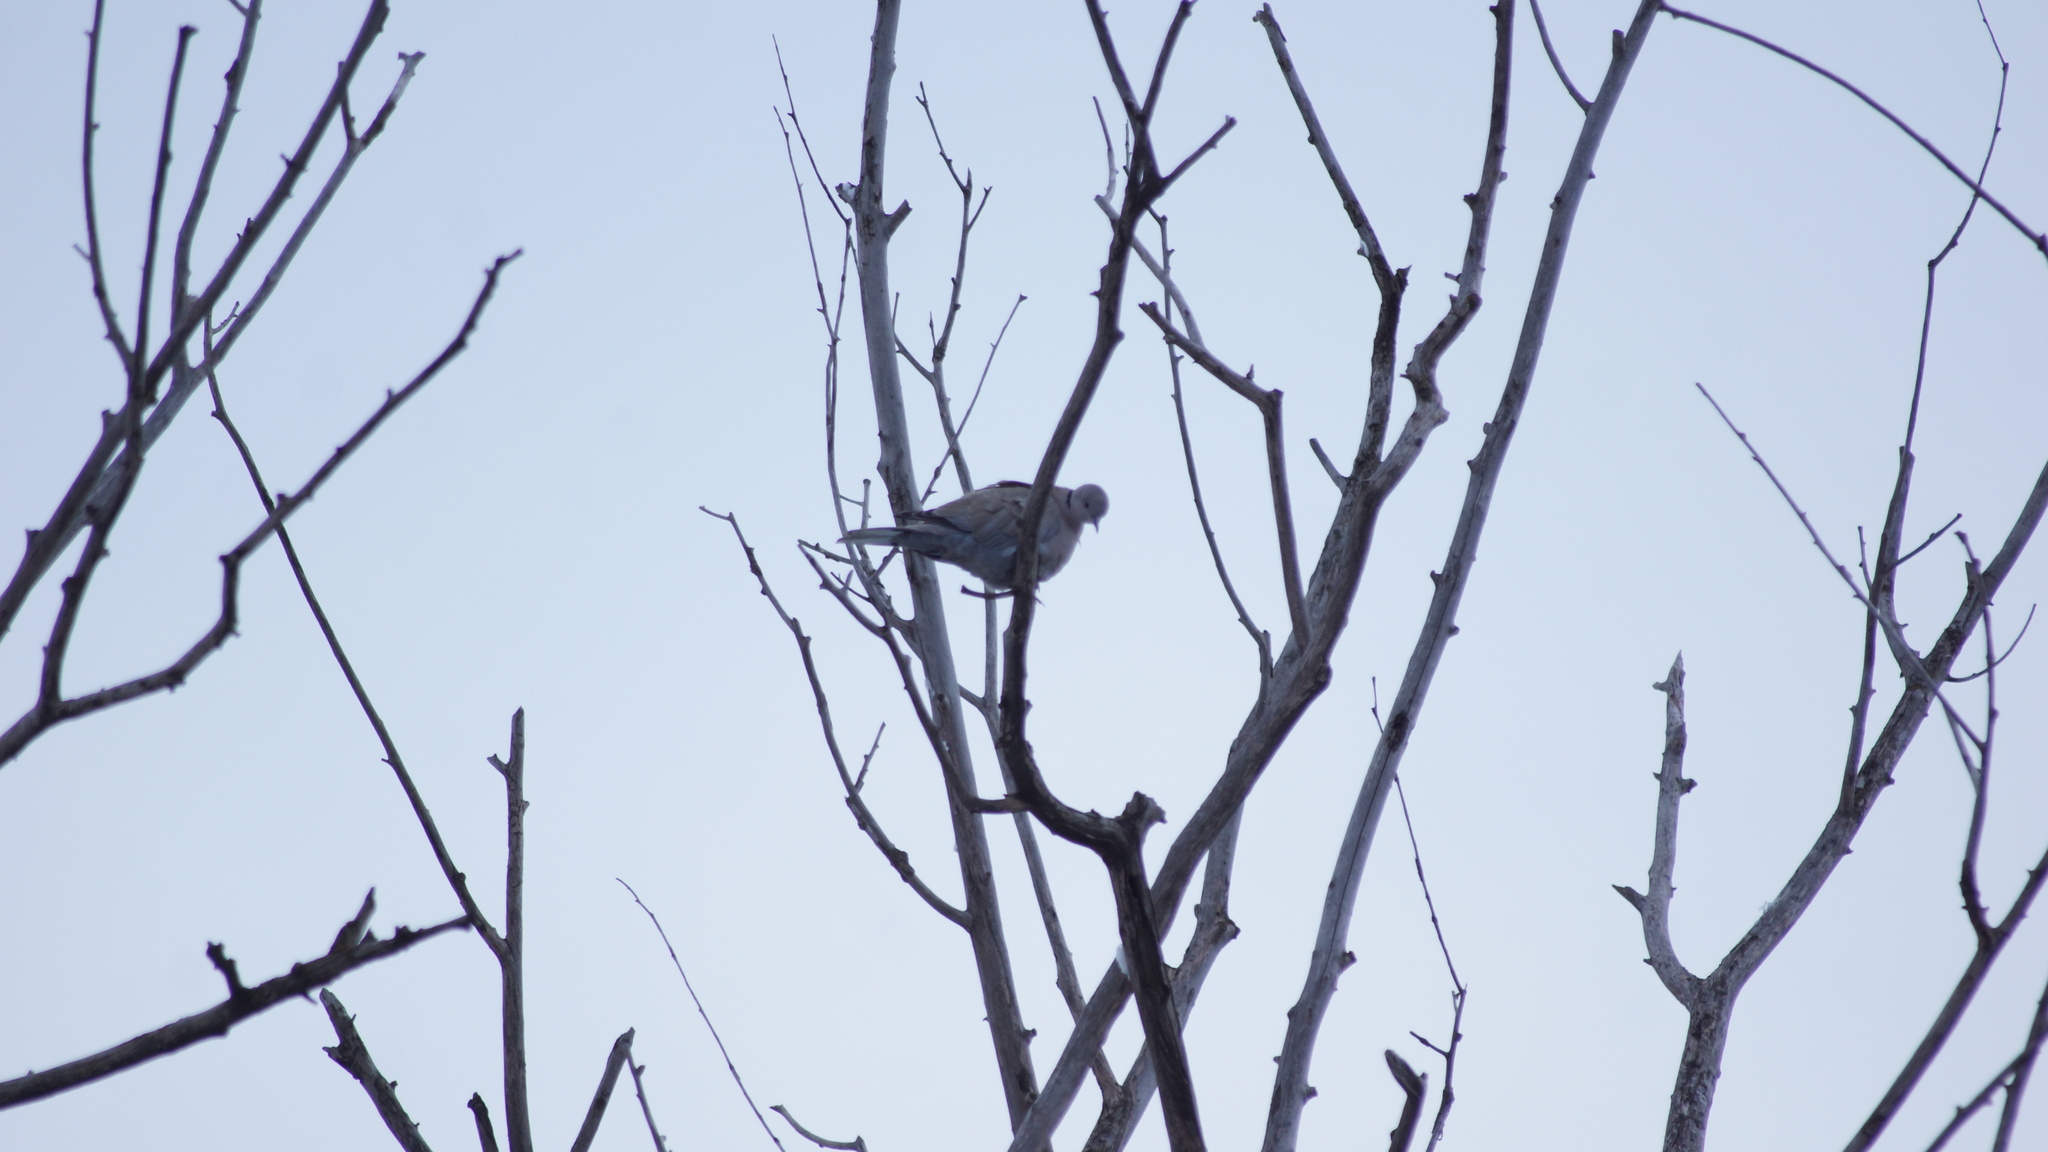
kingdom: Animalia
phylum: Chordata
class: Aves
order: Columbiformes
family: Columbidae
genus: Streptopelia
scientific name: Streptopelia decaocto
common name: Eurasian collared dove
